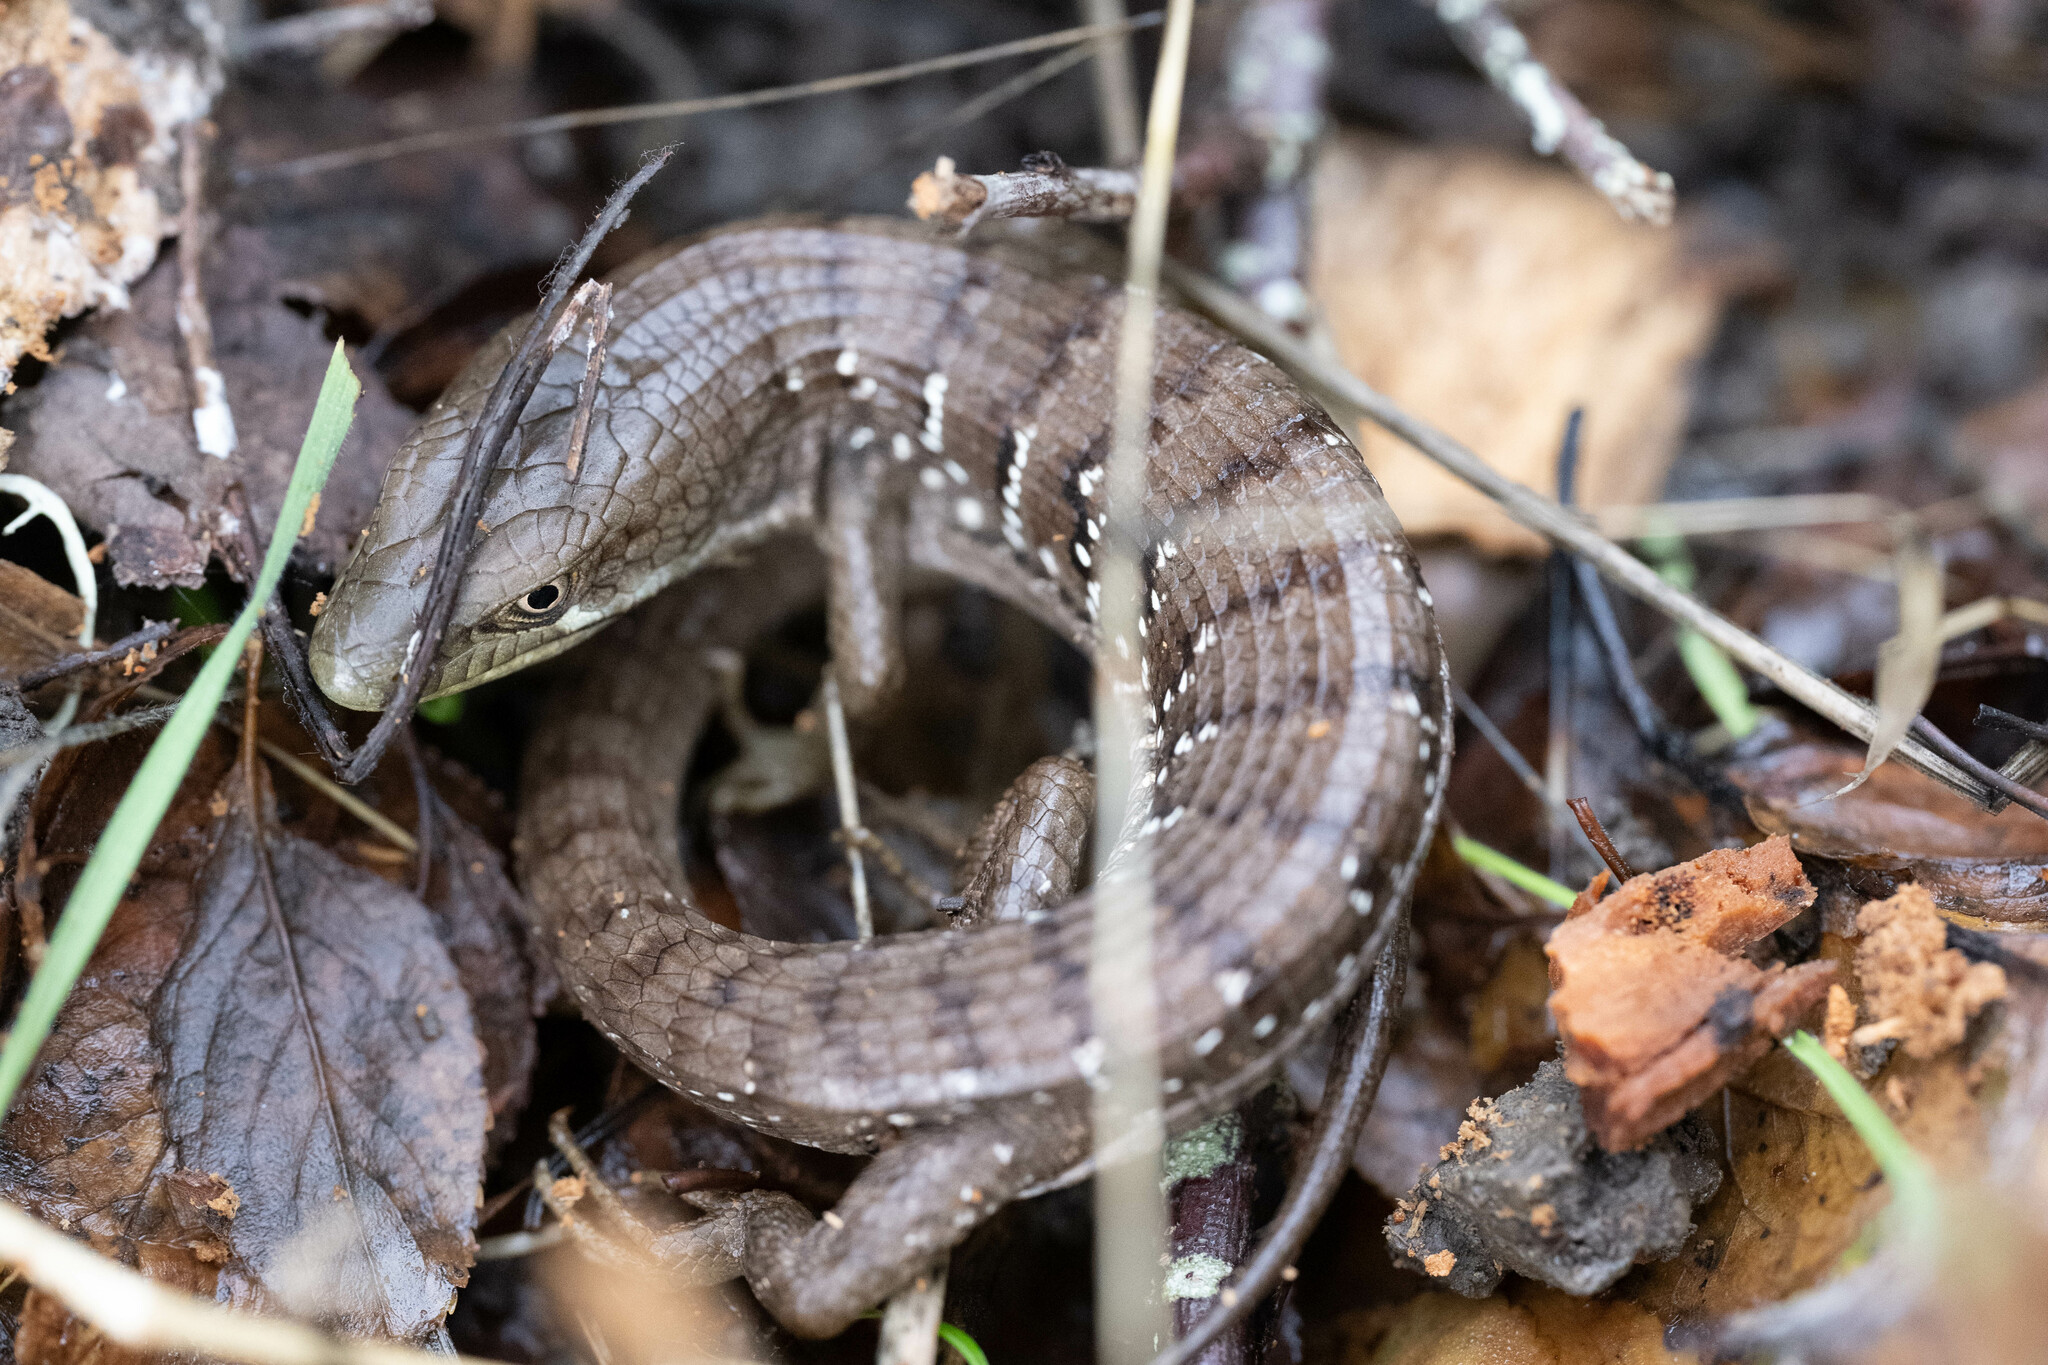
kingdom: Animalia
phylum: Chordata
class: Squamata
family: Anguidae
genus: Elgaria
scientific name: Elgaria multicarinata
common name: Southern alligator lizard
